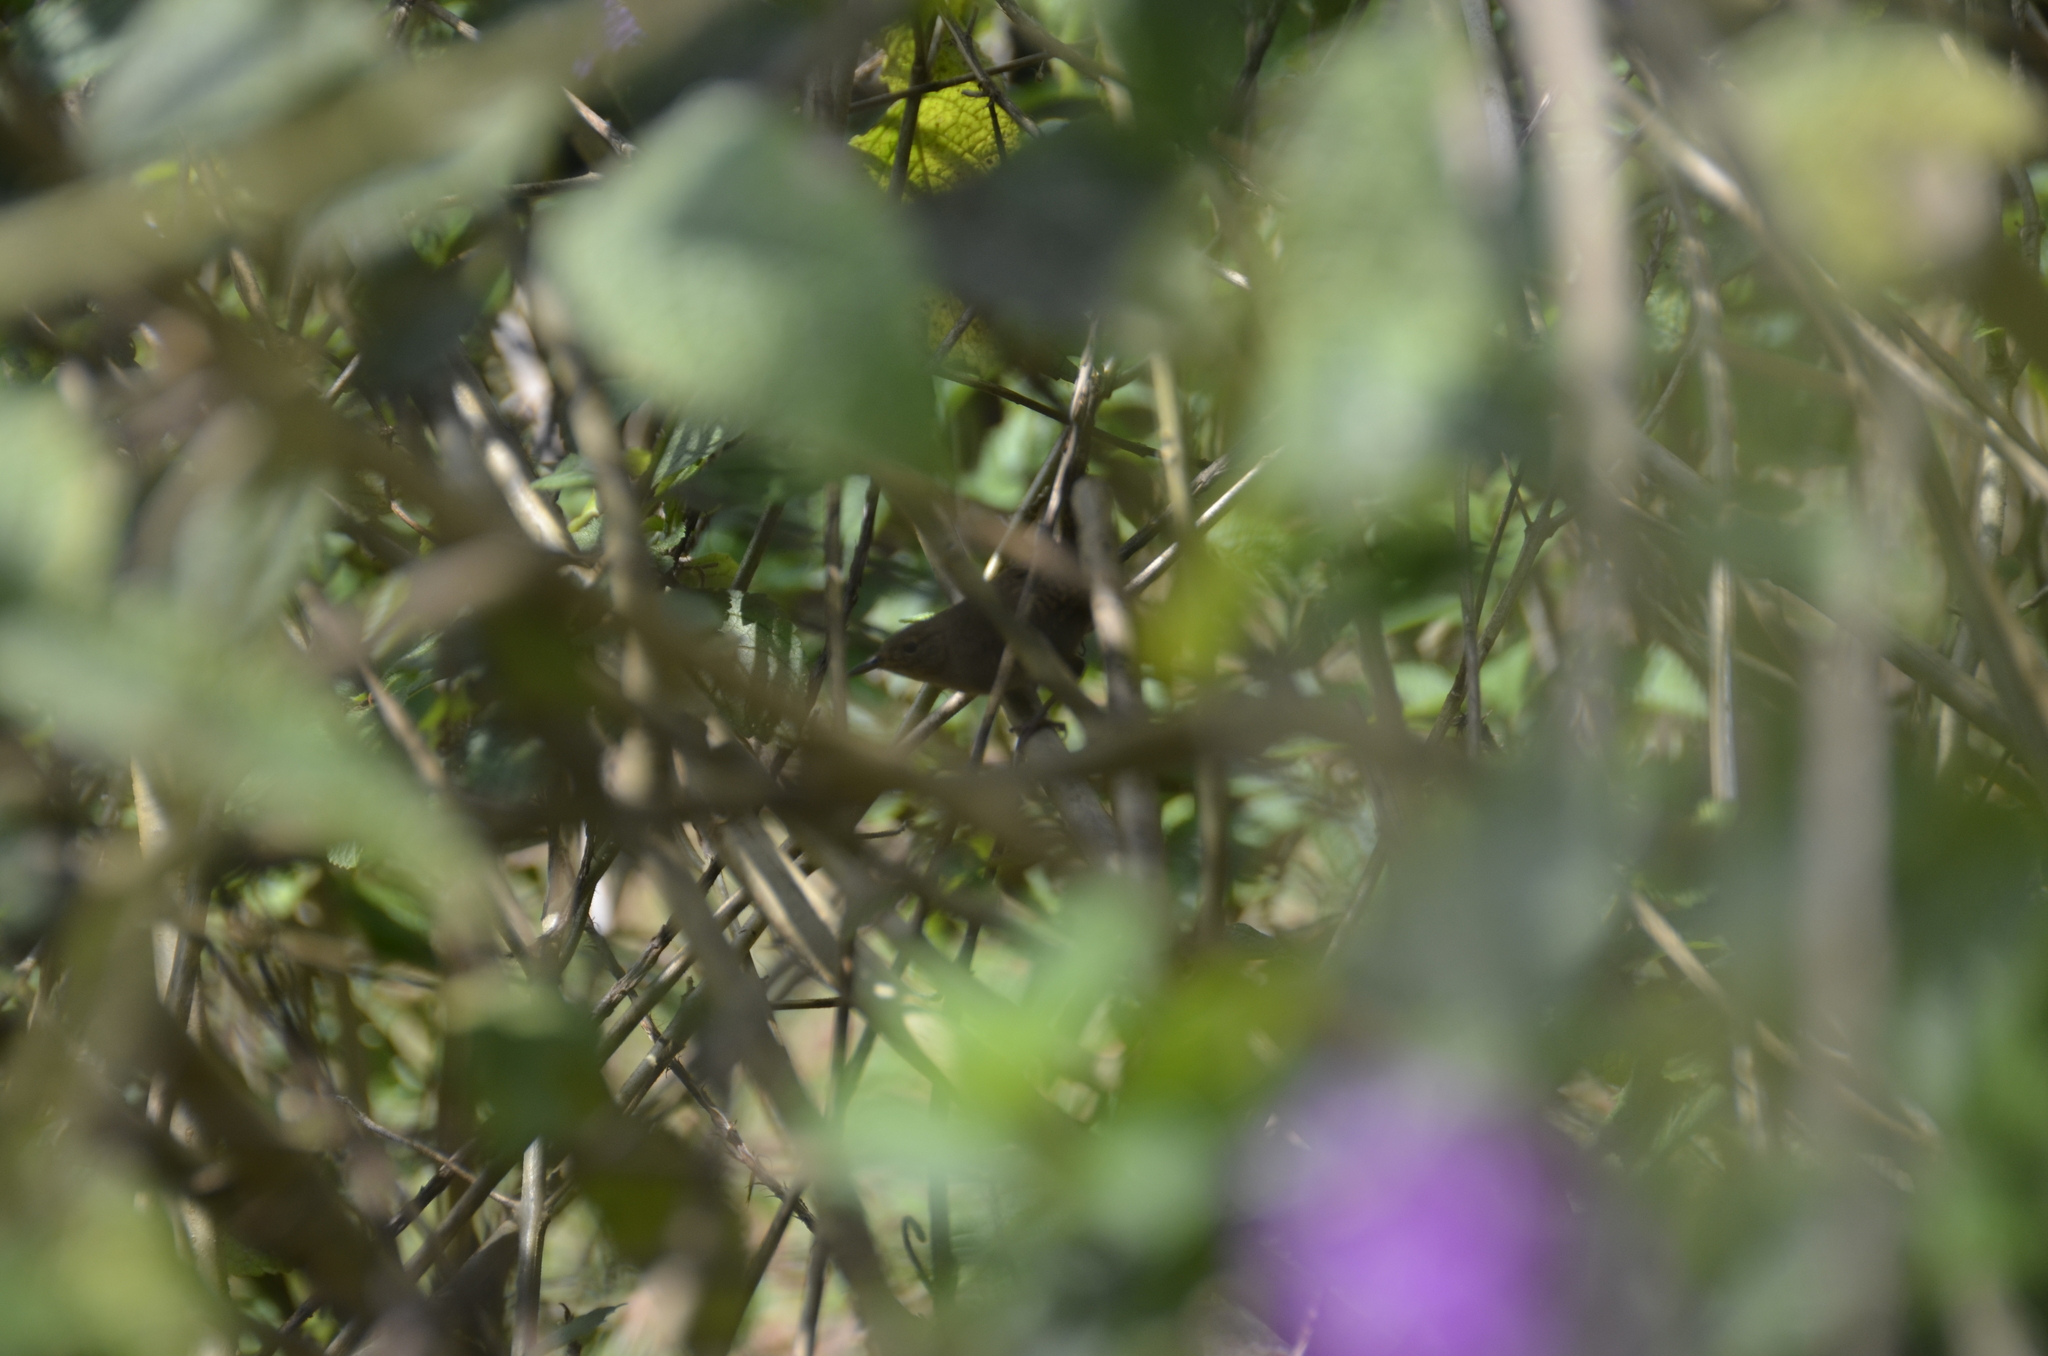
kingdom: Animalia
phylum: Chordata
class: Aves
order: Passeriformes
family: Troglodytidae
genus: Troglodytes
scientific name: Troglodytes aedon
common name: House wren
